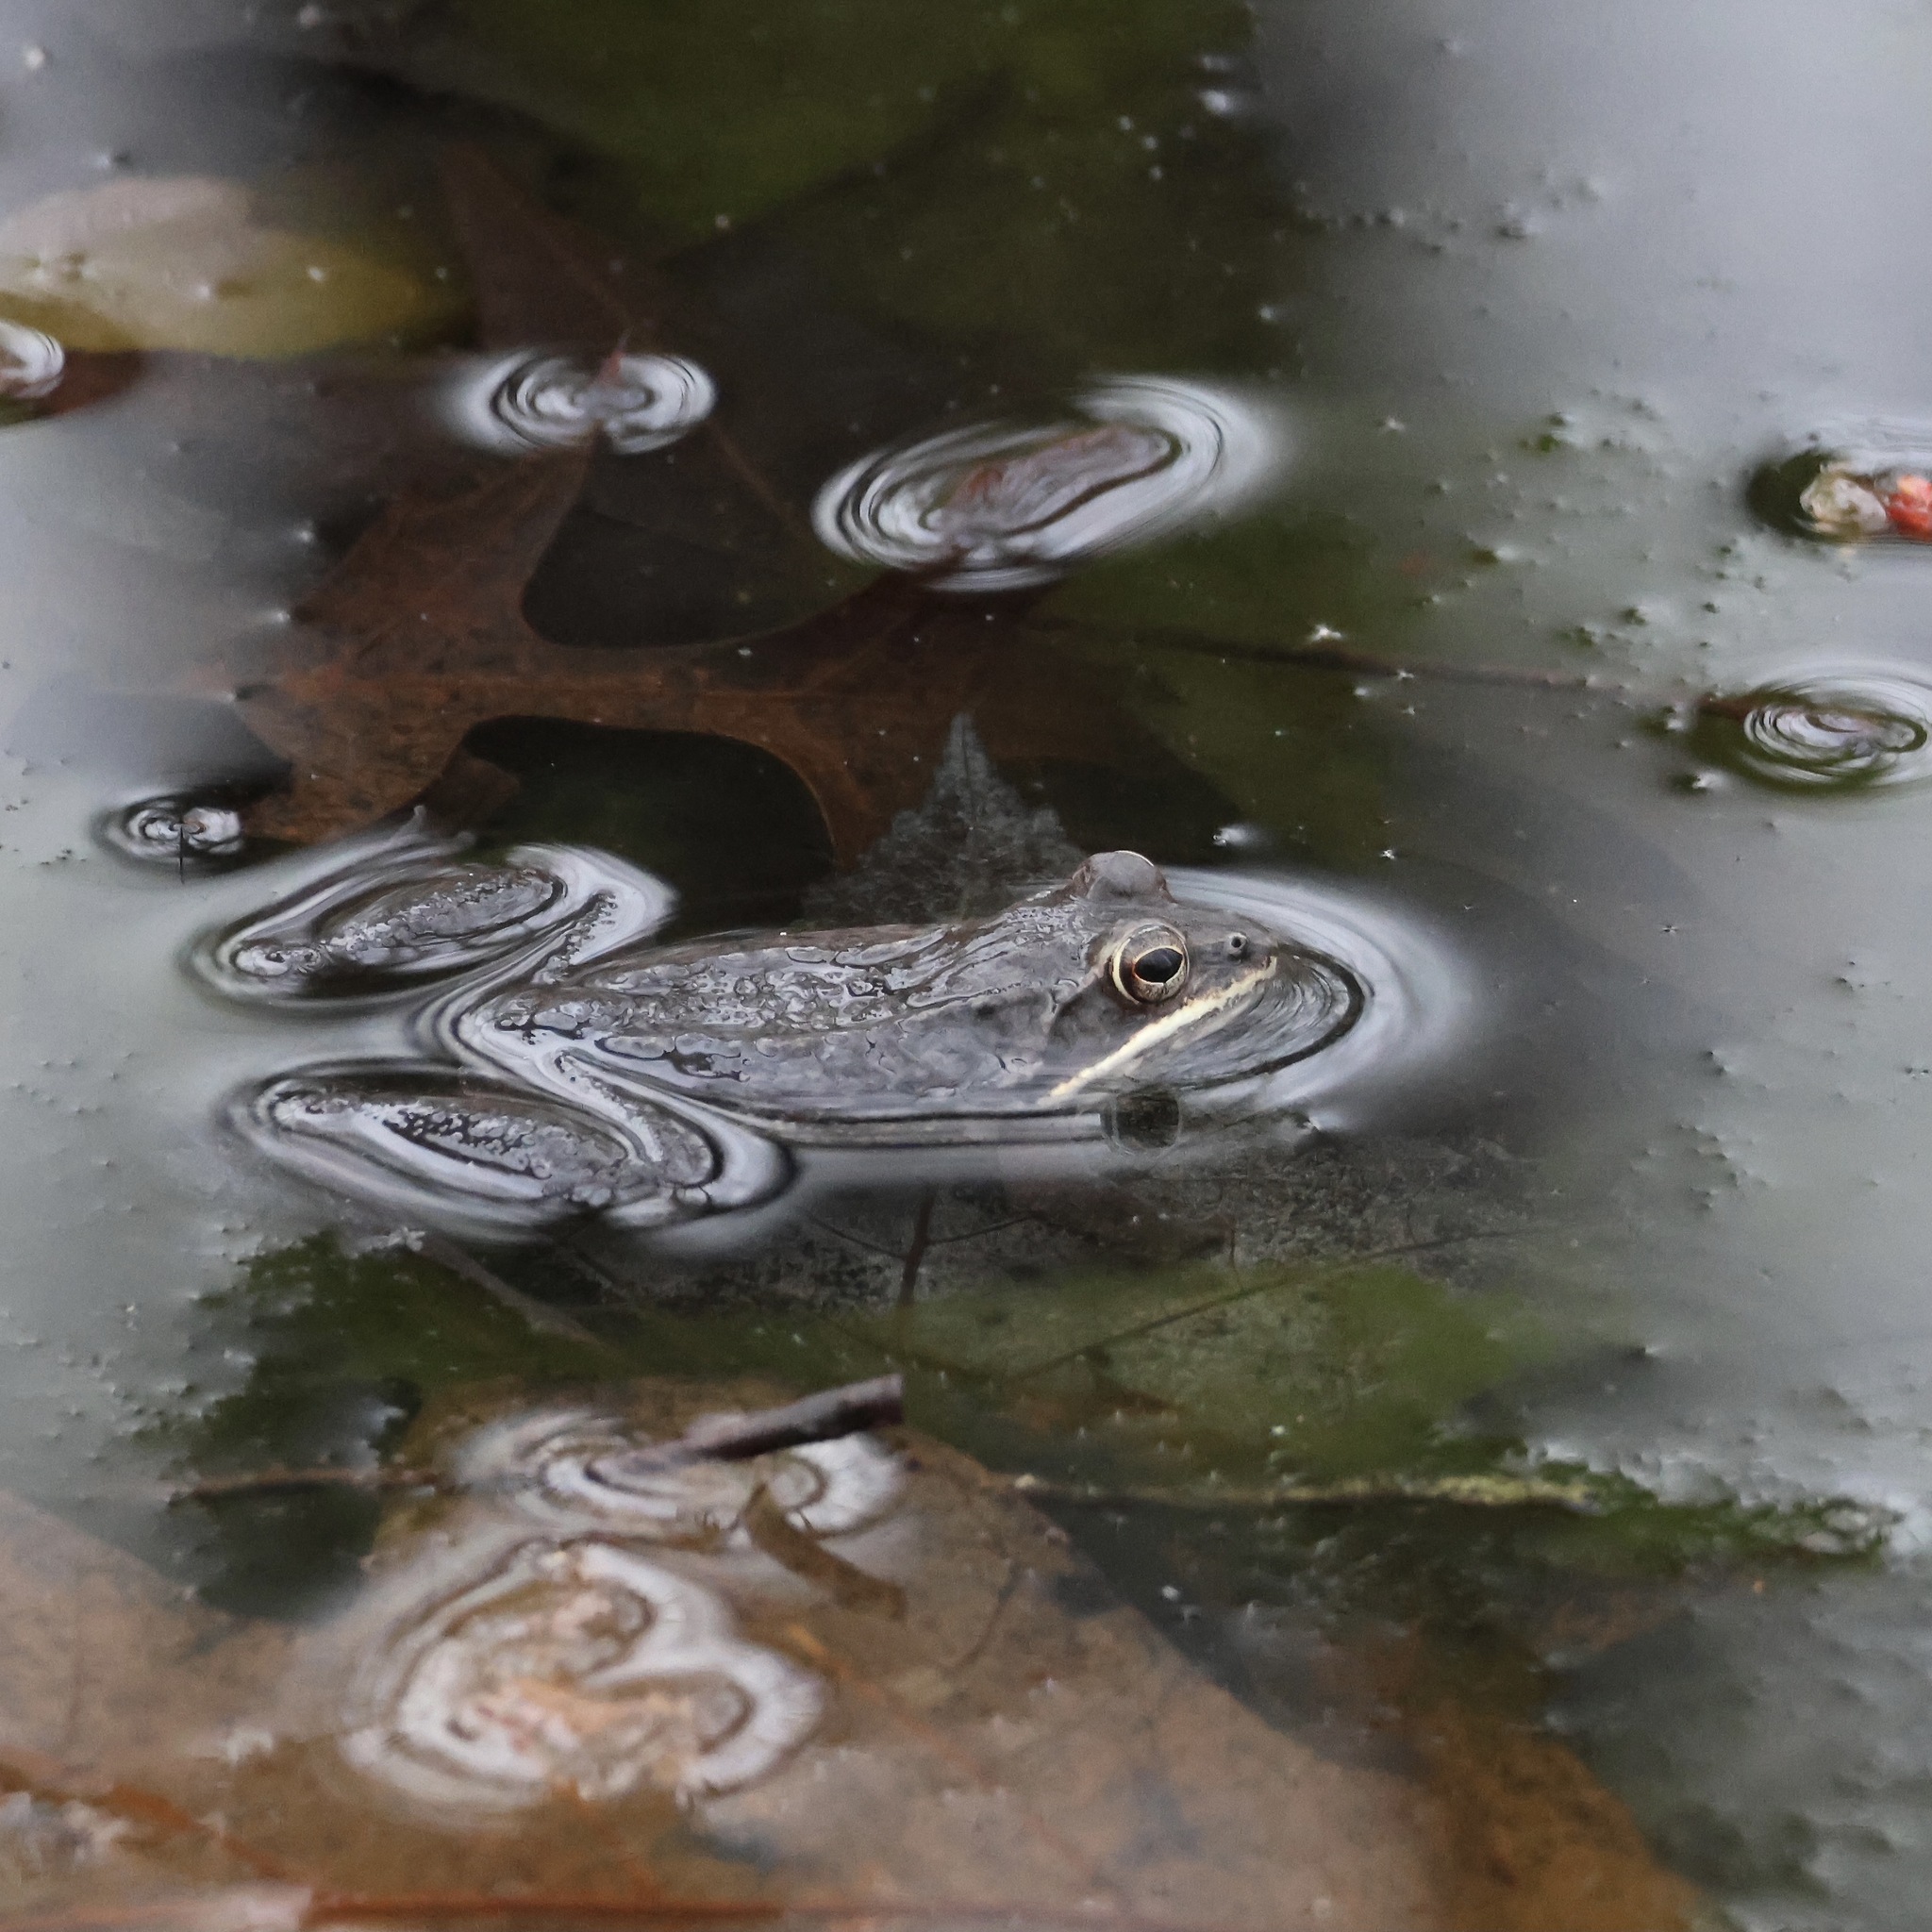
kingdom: Animalia
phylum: Chordata
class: Amphibia
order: Anura
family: Ranidae
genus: Lithobates
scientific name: Lithobates sylvaticus
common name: Wood frog
